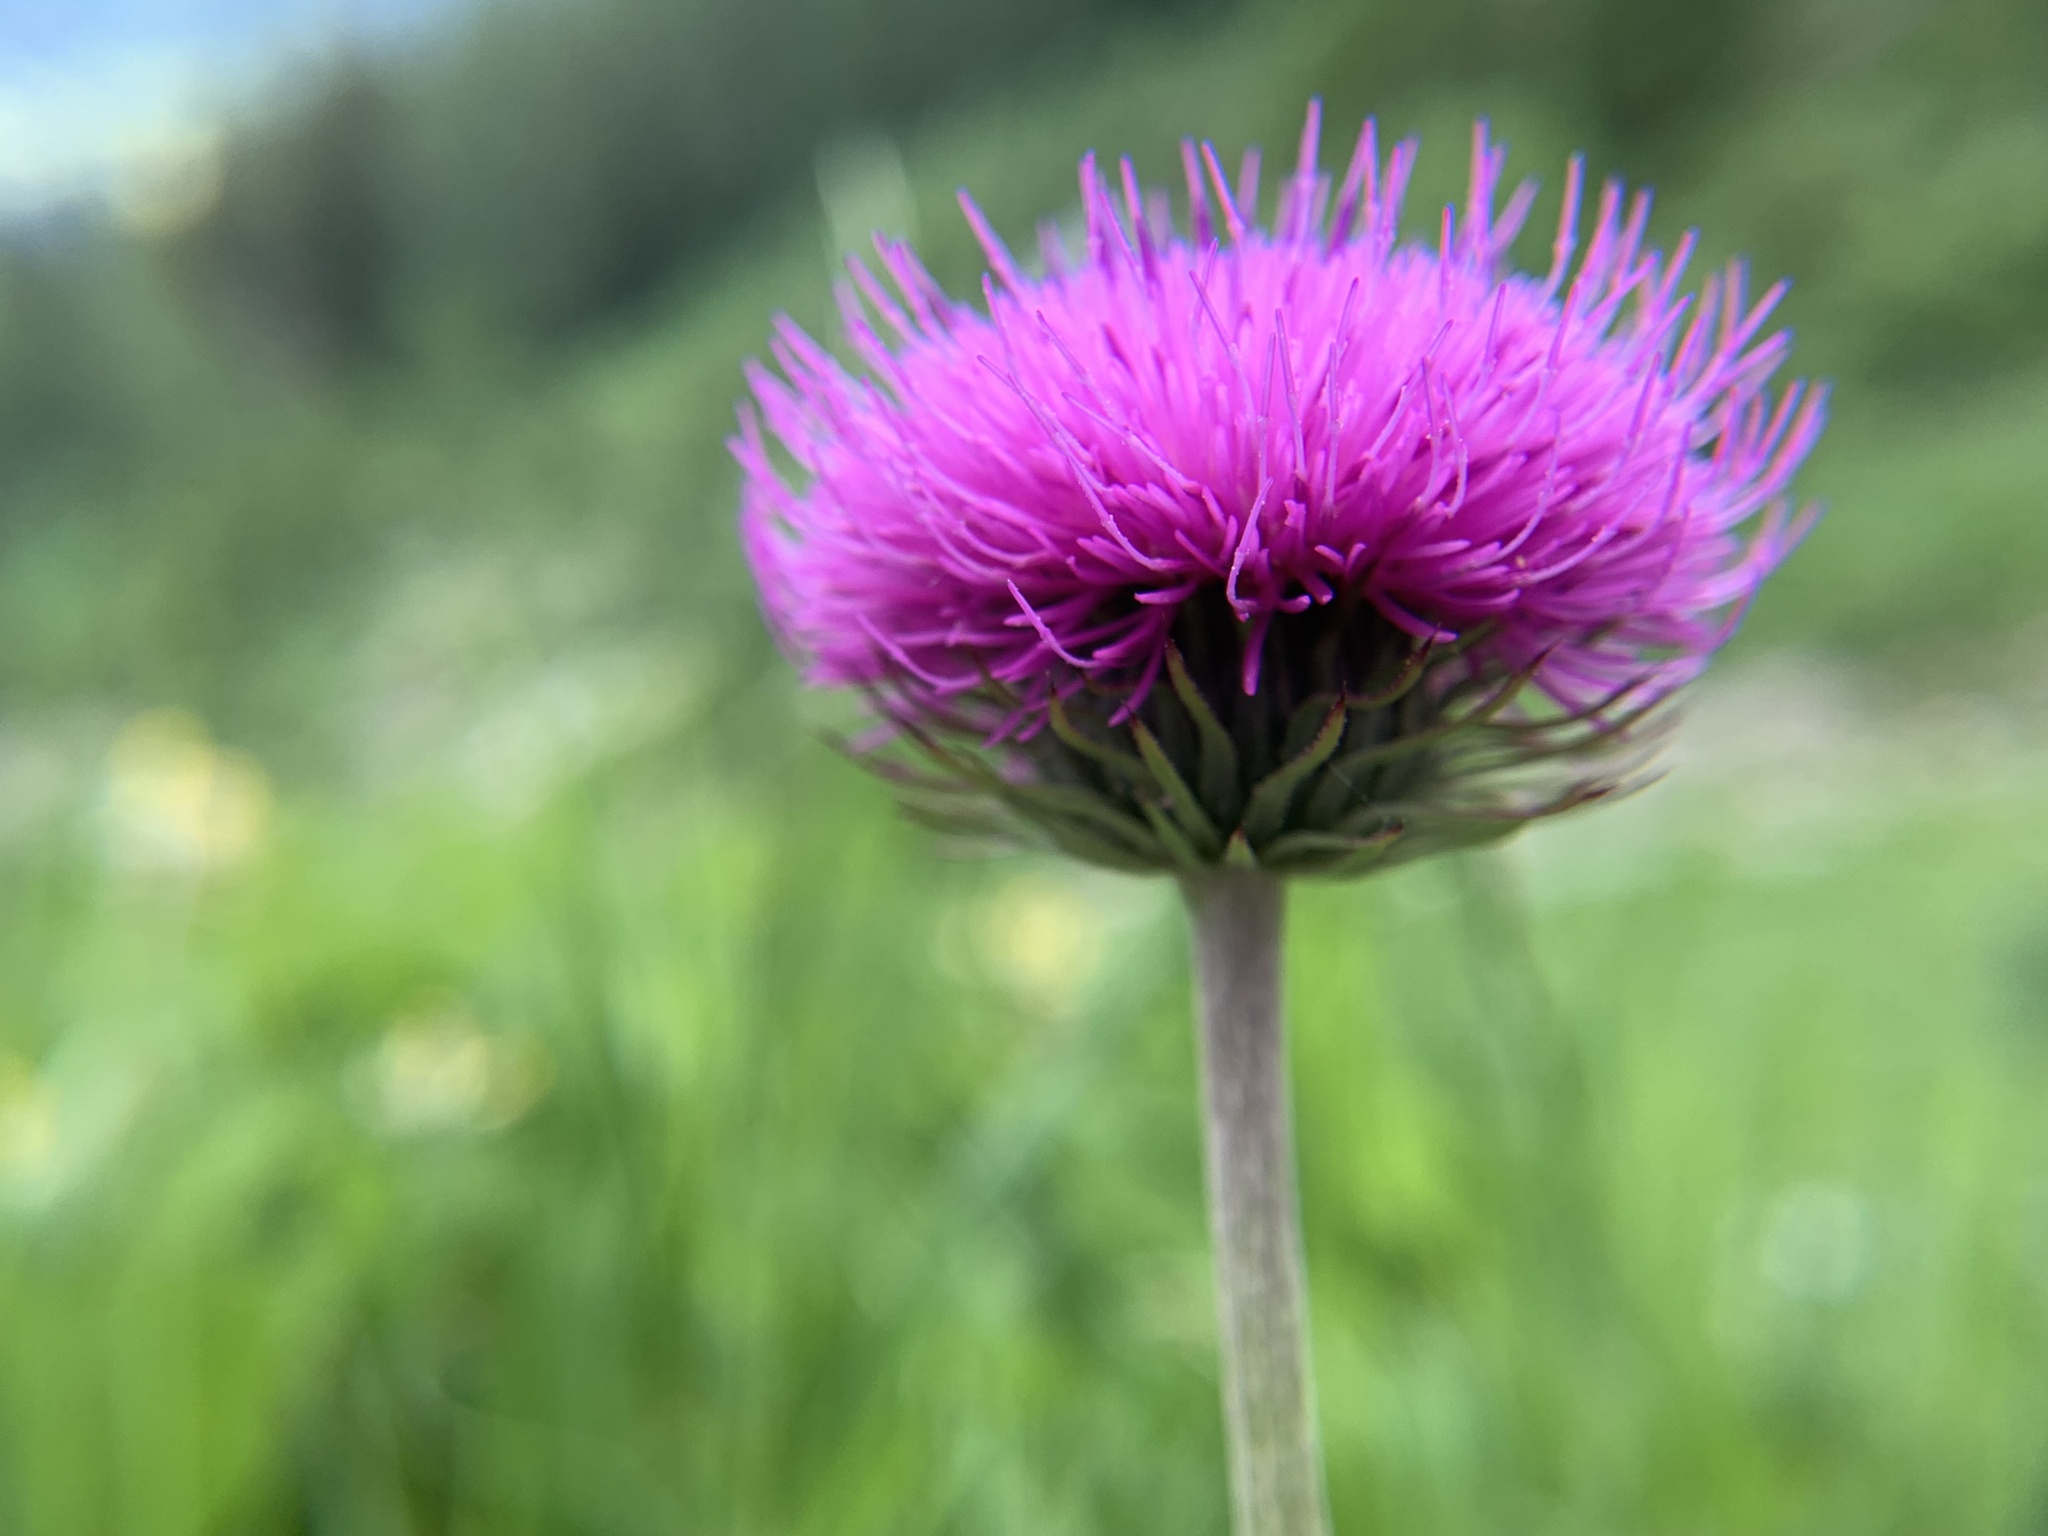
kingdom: Plantae
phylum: Tracheophyta
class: Magnoliopsida
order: Asterales
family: Asteraceae
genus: Carduus
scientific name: Carduus defloratus
